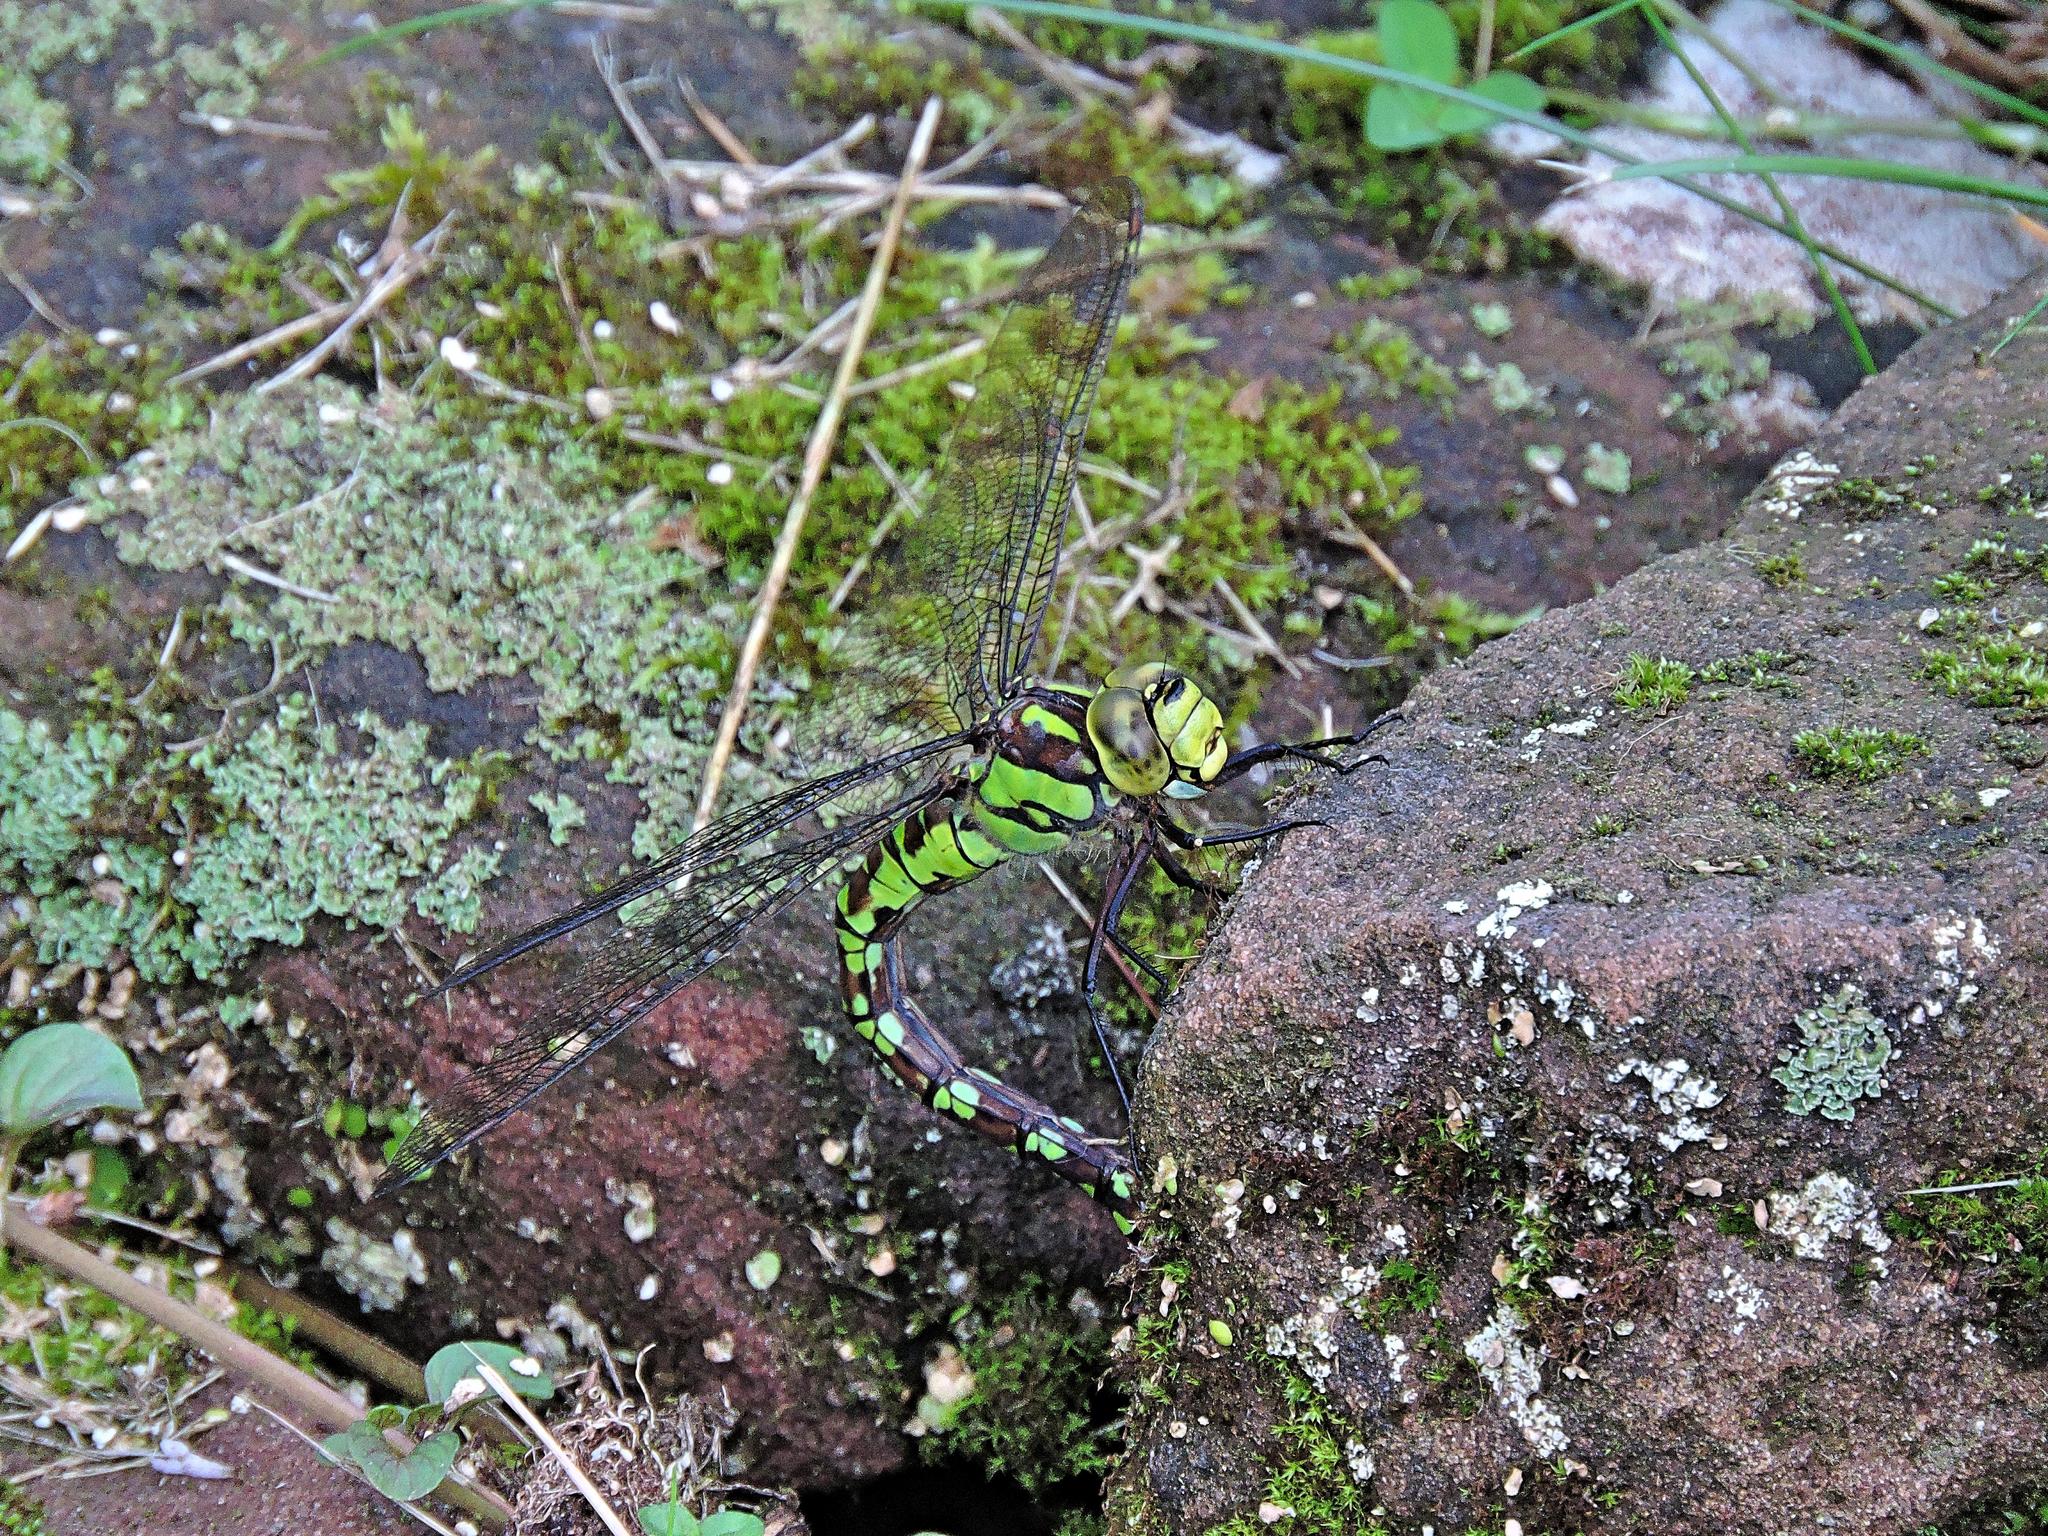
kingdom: Animalia
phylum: Arthropoda
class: Insecta
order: Odonata
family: Aeshnidae
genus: Aeshna
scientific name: Aeshna cyanea
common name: Southern hawker
